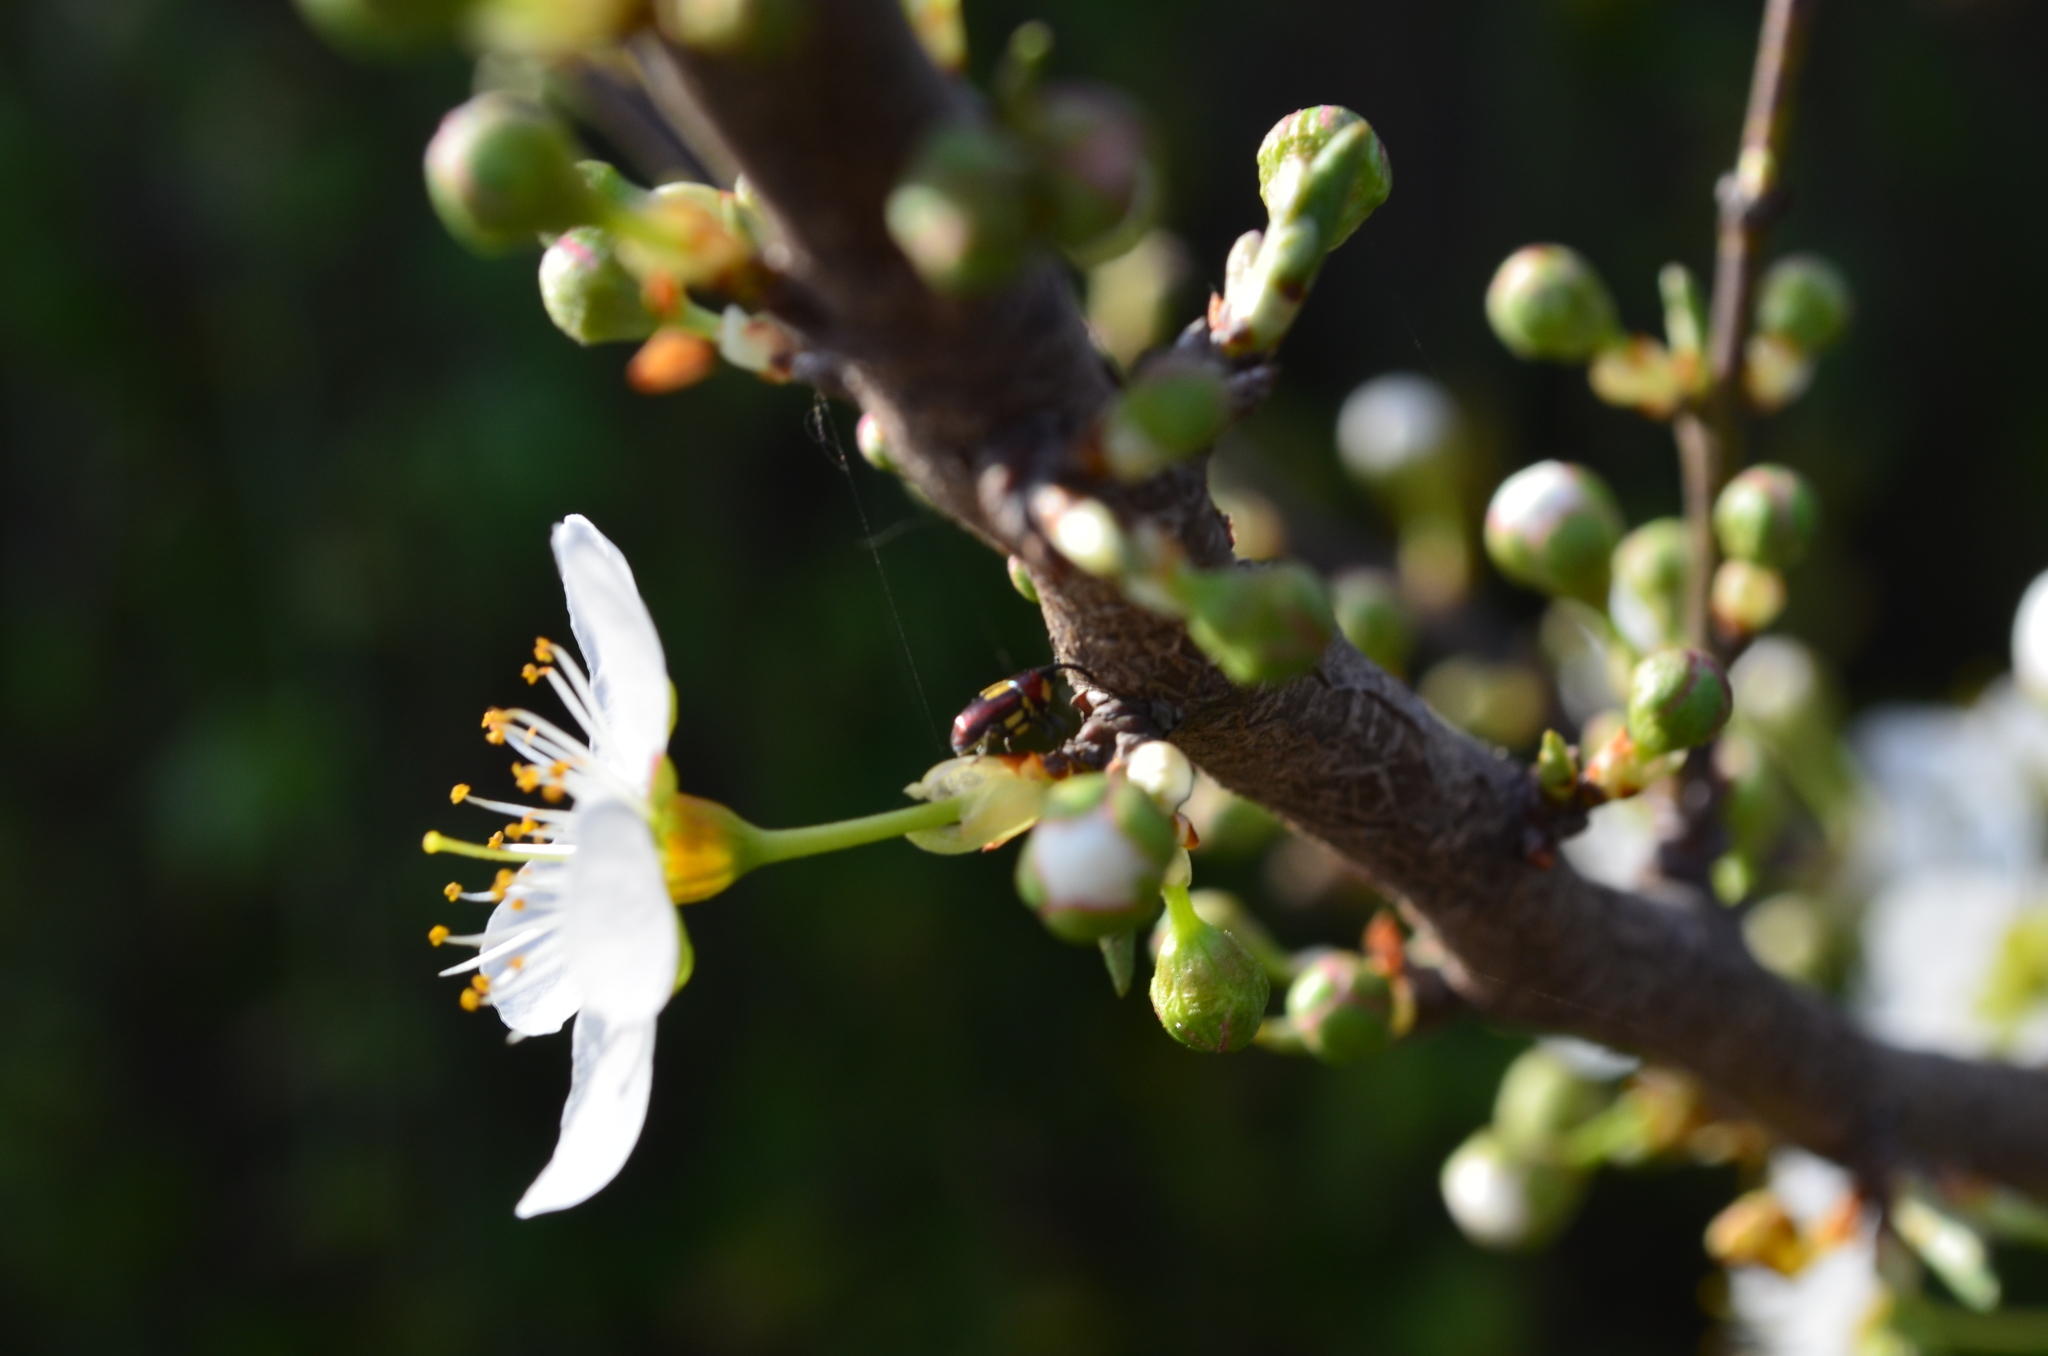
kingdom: Animalia
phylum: Arthropoda
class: Insecta
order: Coleoptera
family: Curculionidae
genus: Dimesus
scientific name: Dimesus
